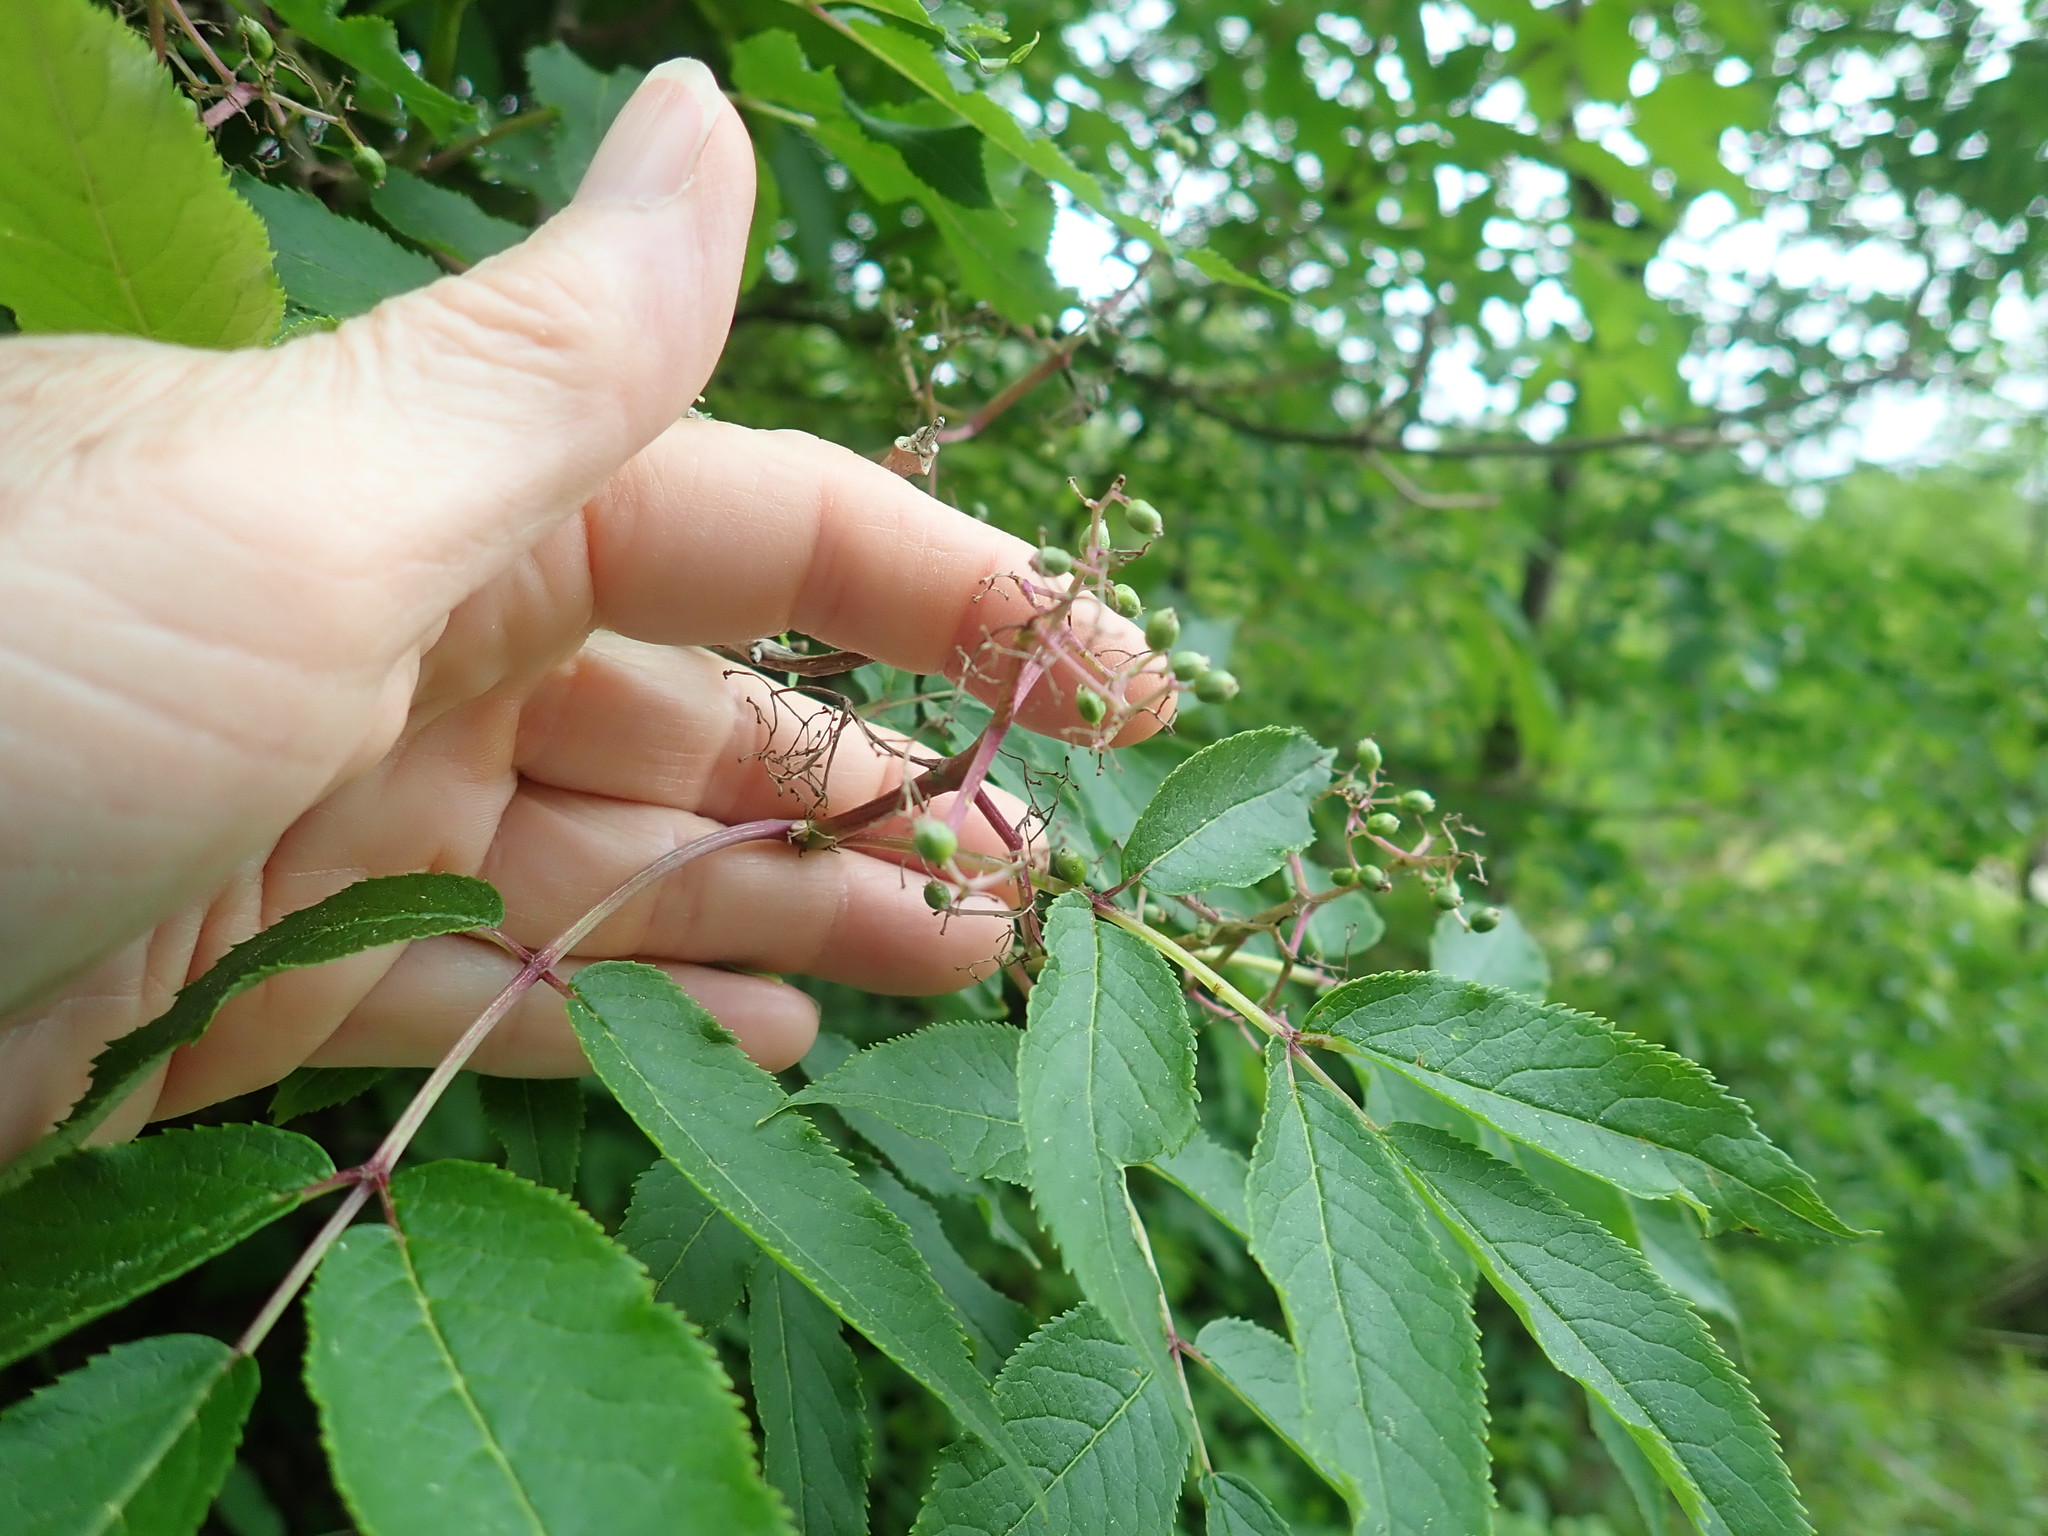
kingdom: Plantae
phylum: Tracheophyta
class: Magnoliopsida
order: Dipsacales
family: Viburnaceae
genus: Sambucus
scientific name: Sambucus racemosa
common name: Red-berried elder
